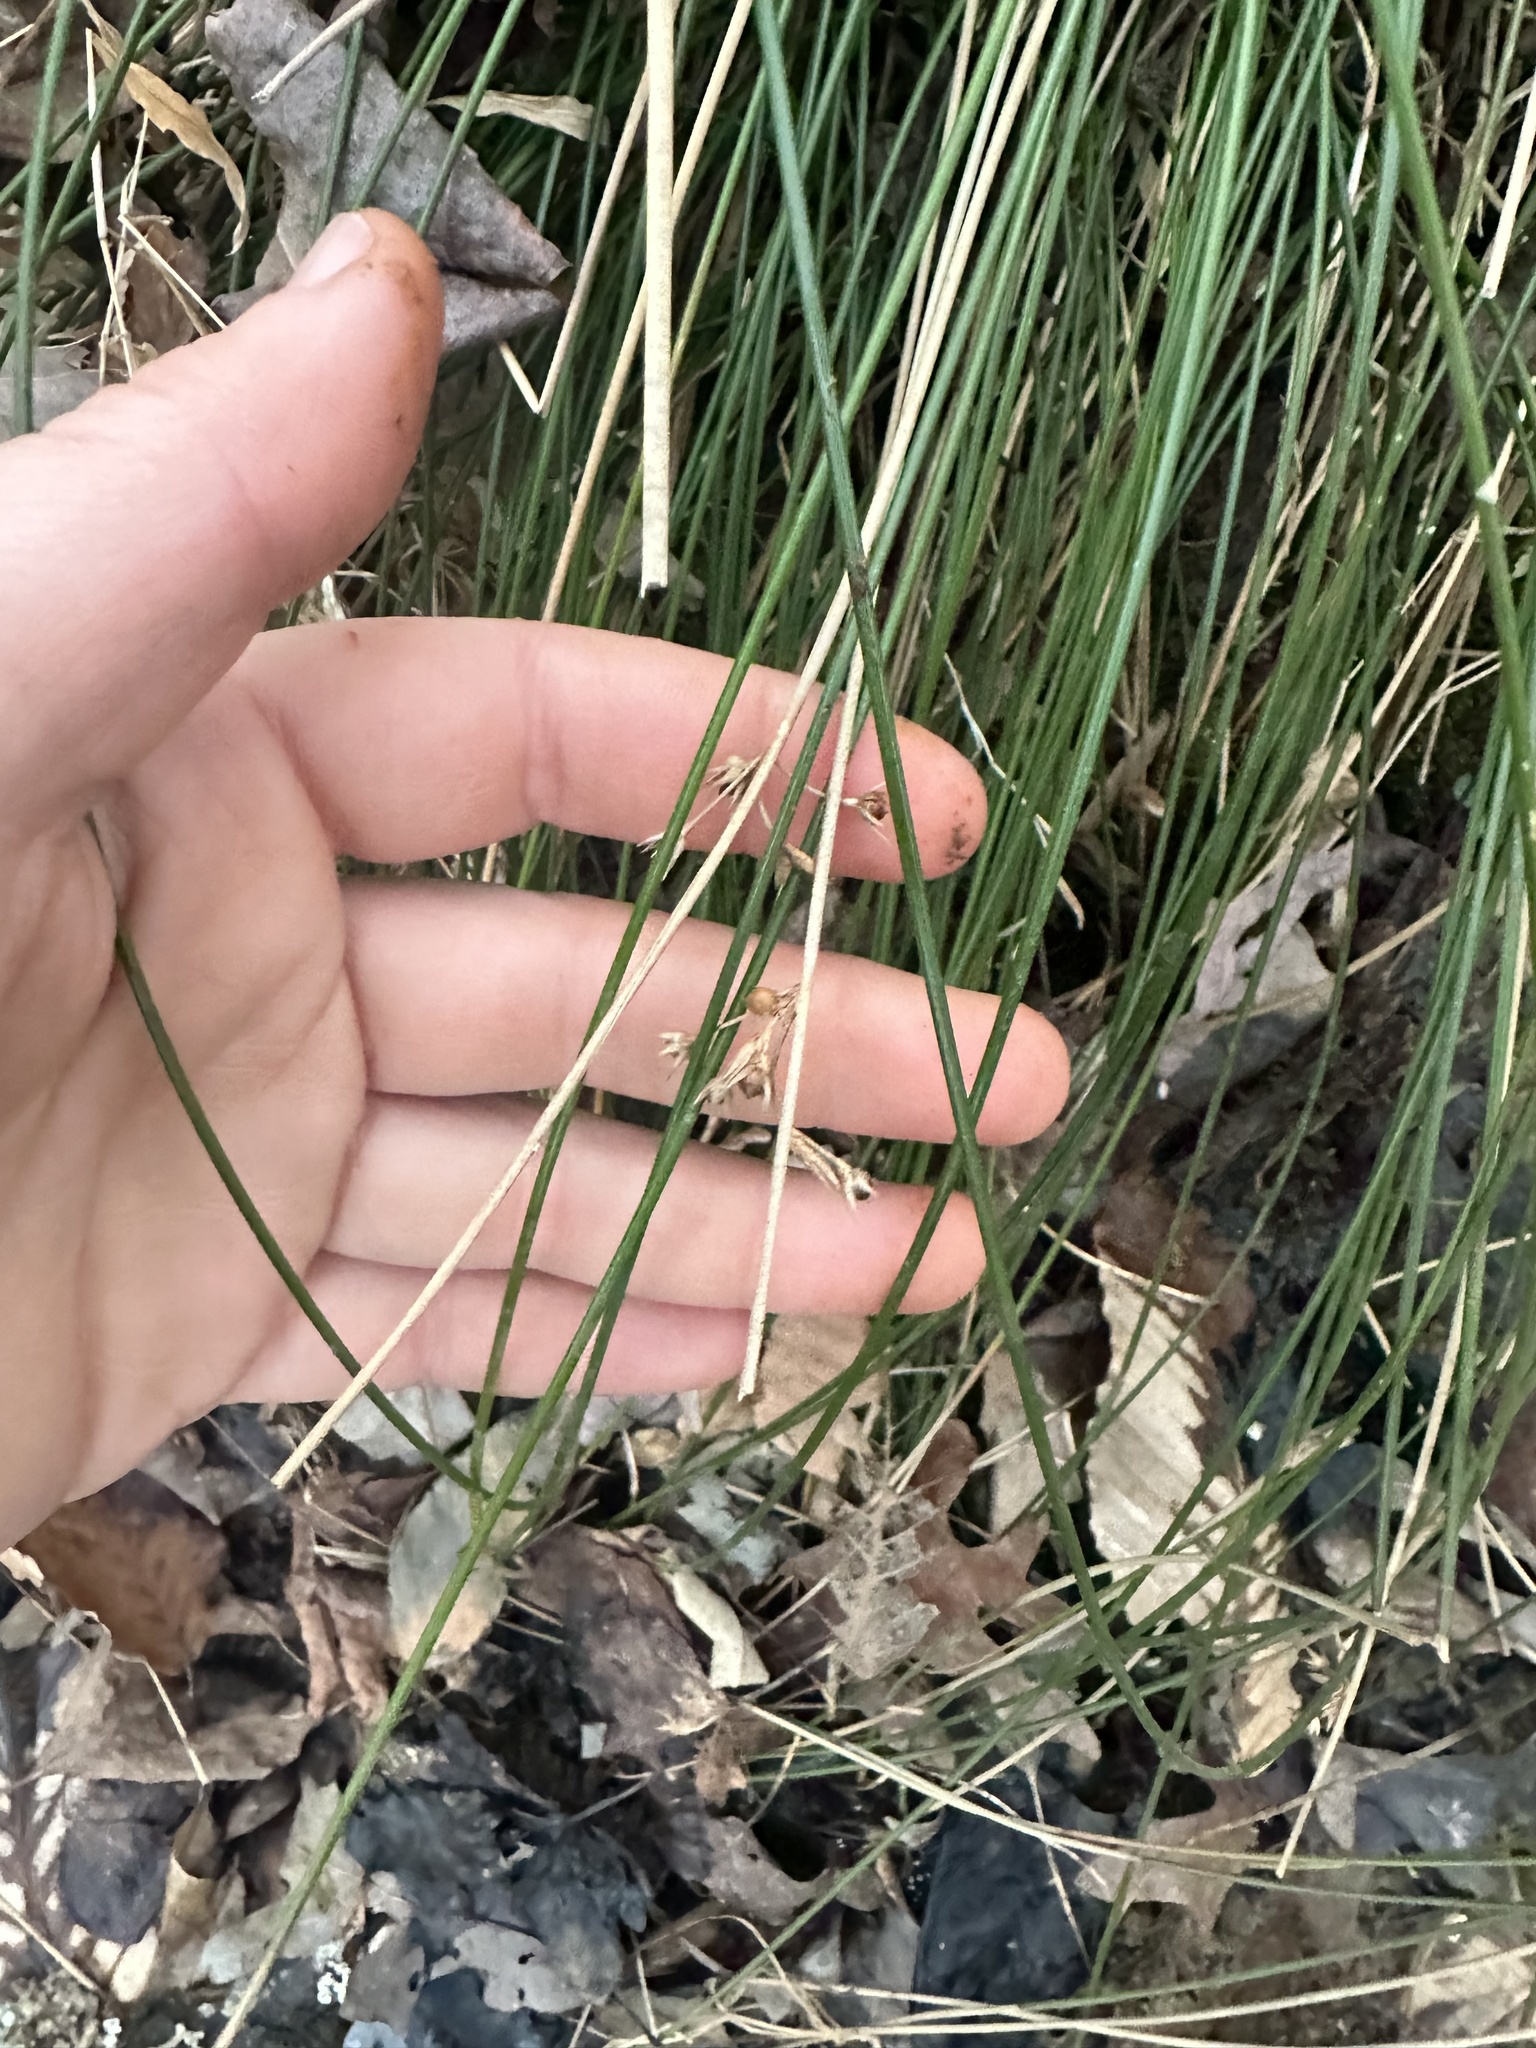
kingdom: Plantae
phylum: Tracheophyta
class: Liliopsida
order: Poales
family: Juncaceae
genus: Juncus
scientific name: Juncus coriaceus
